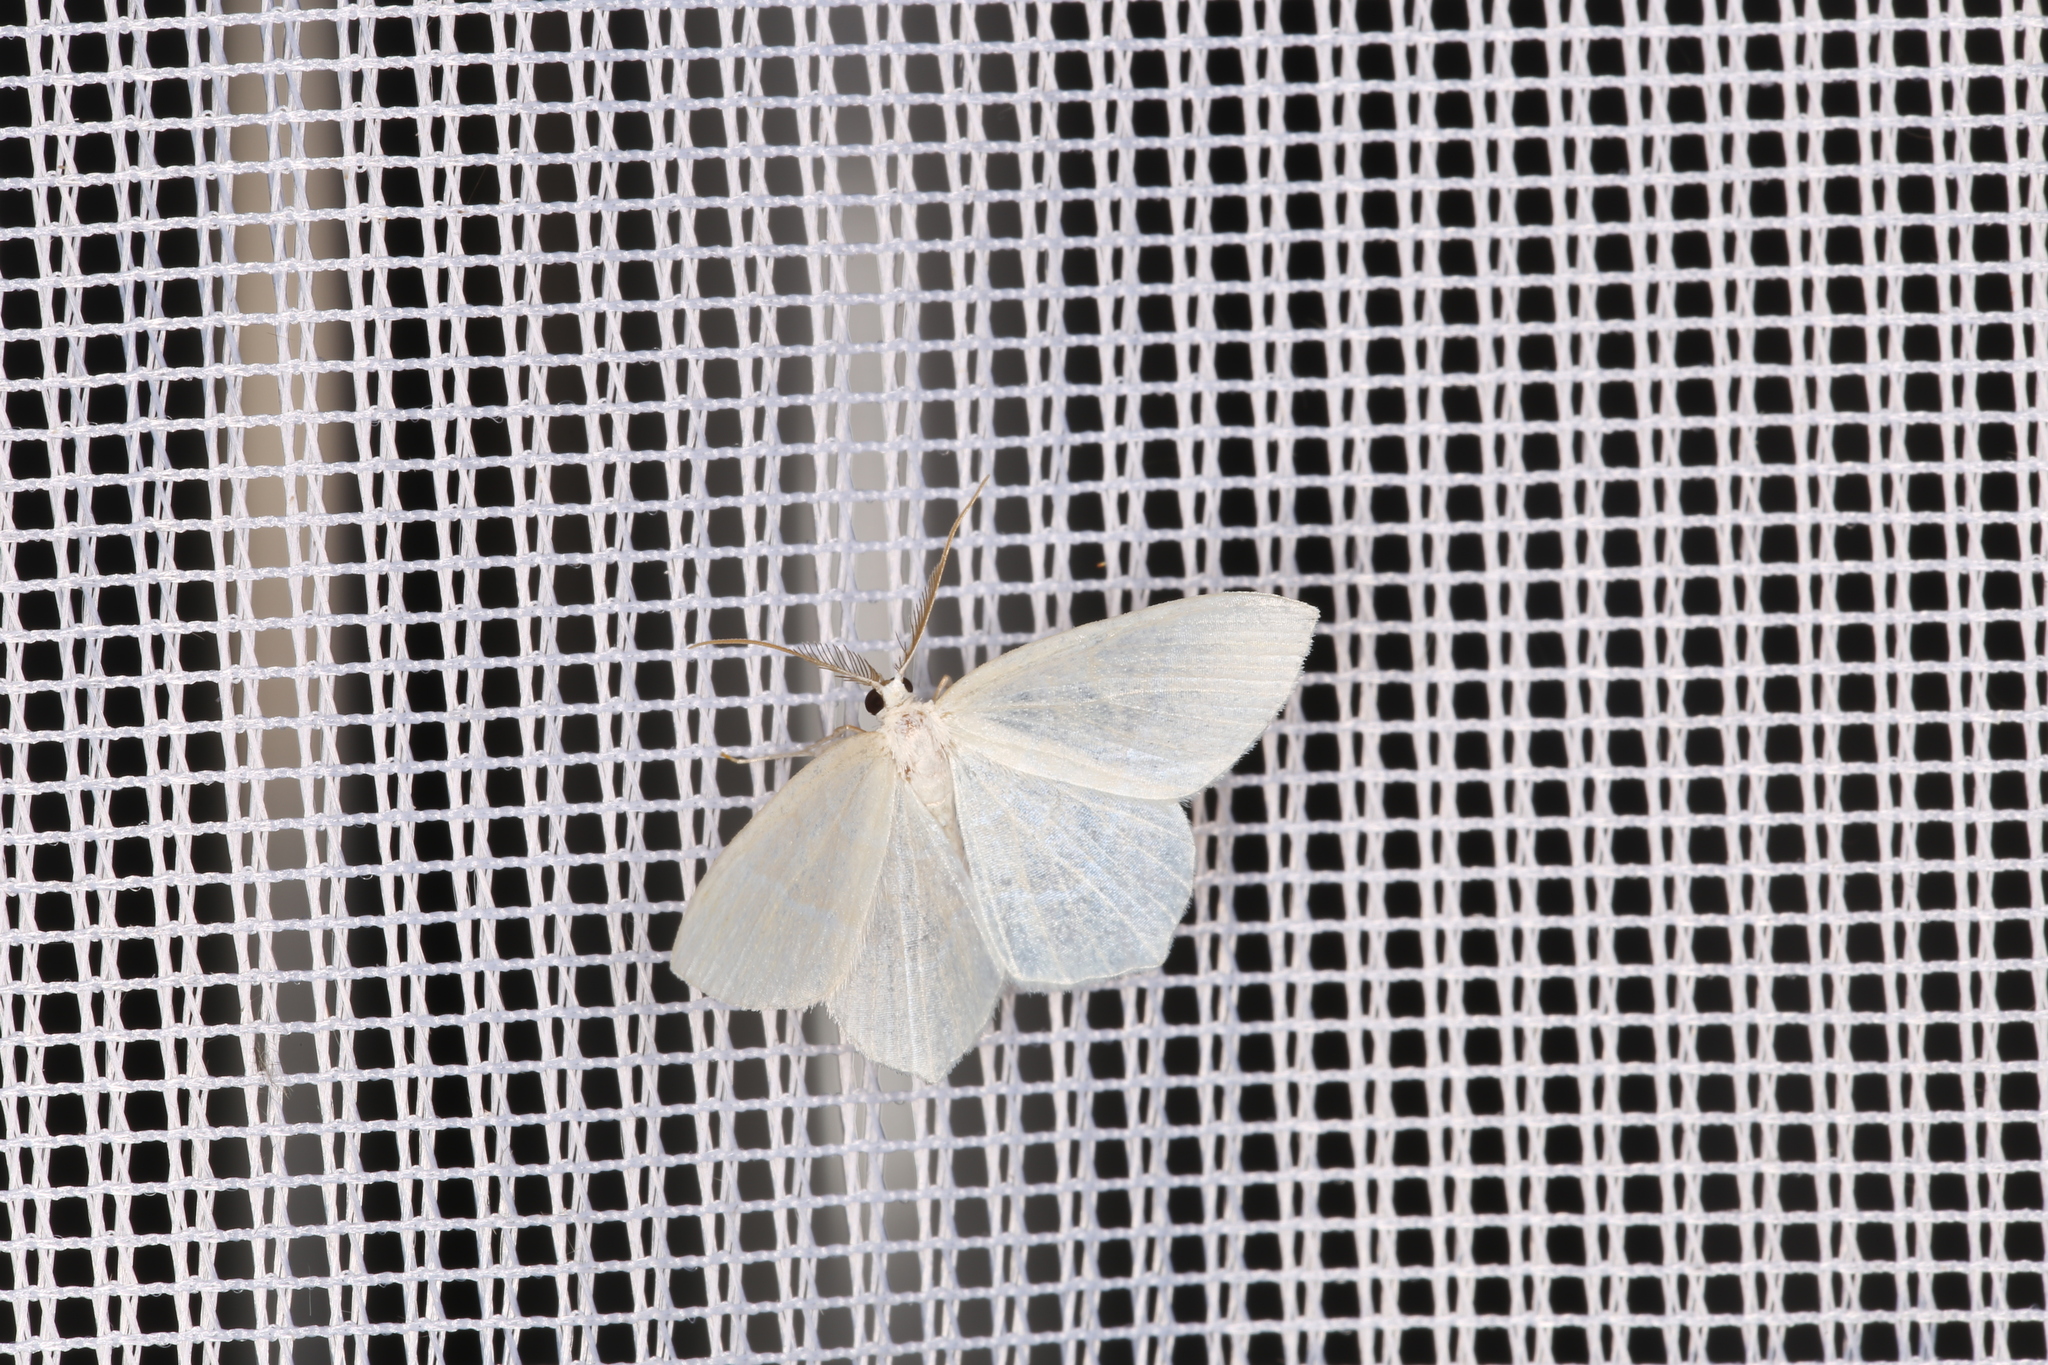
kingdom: Animalia
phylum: Arthropoda
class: Insecta
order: Lepidoptera
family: Geometridae
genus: Jodis
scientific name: Jodis lactearia
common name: Little emerald
